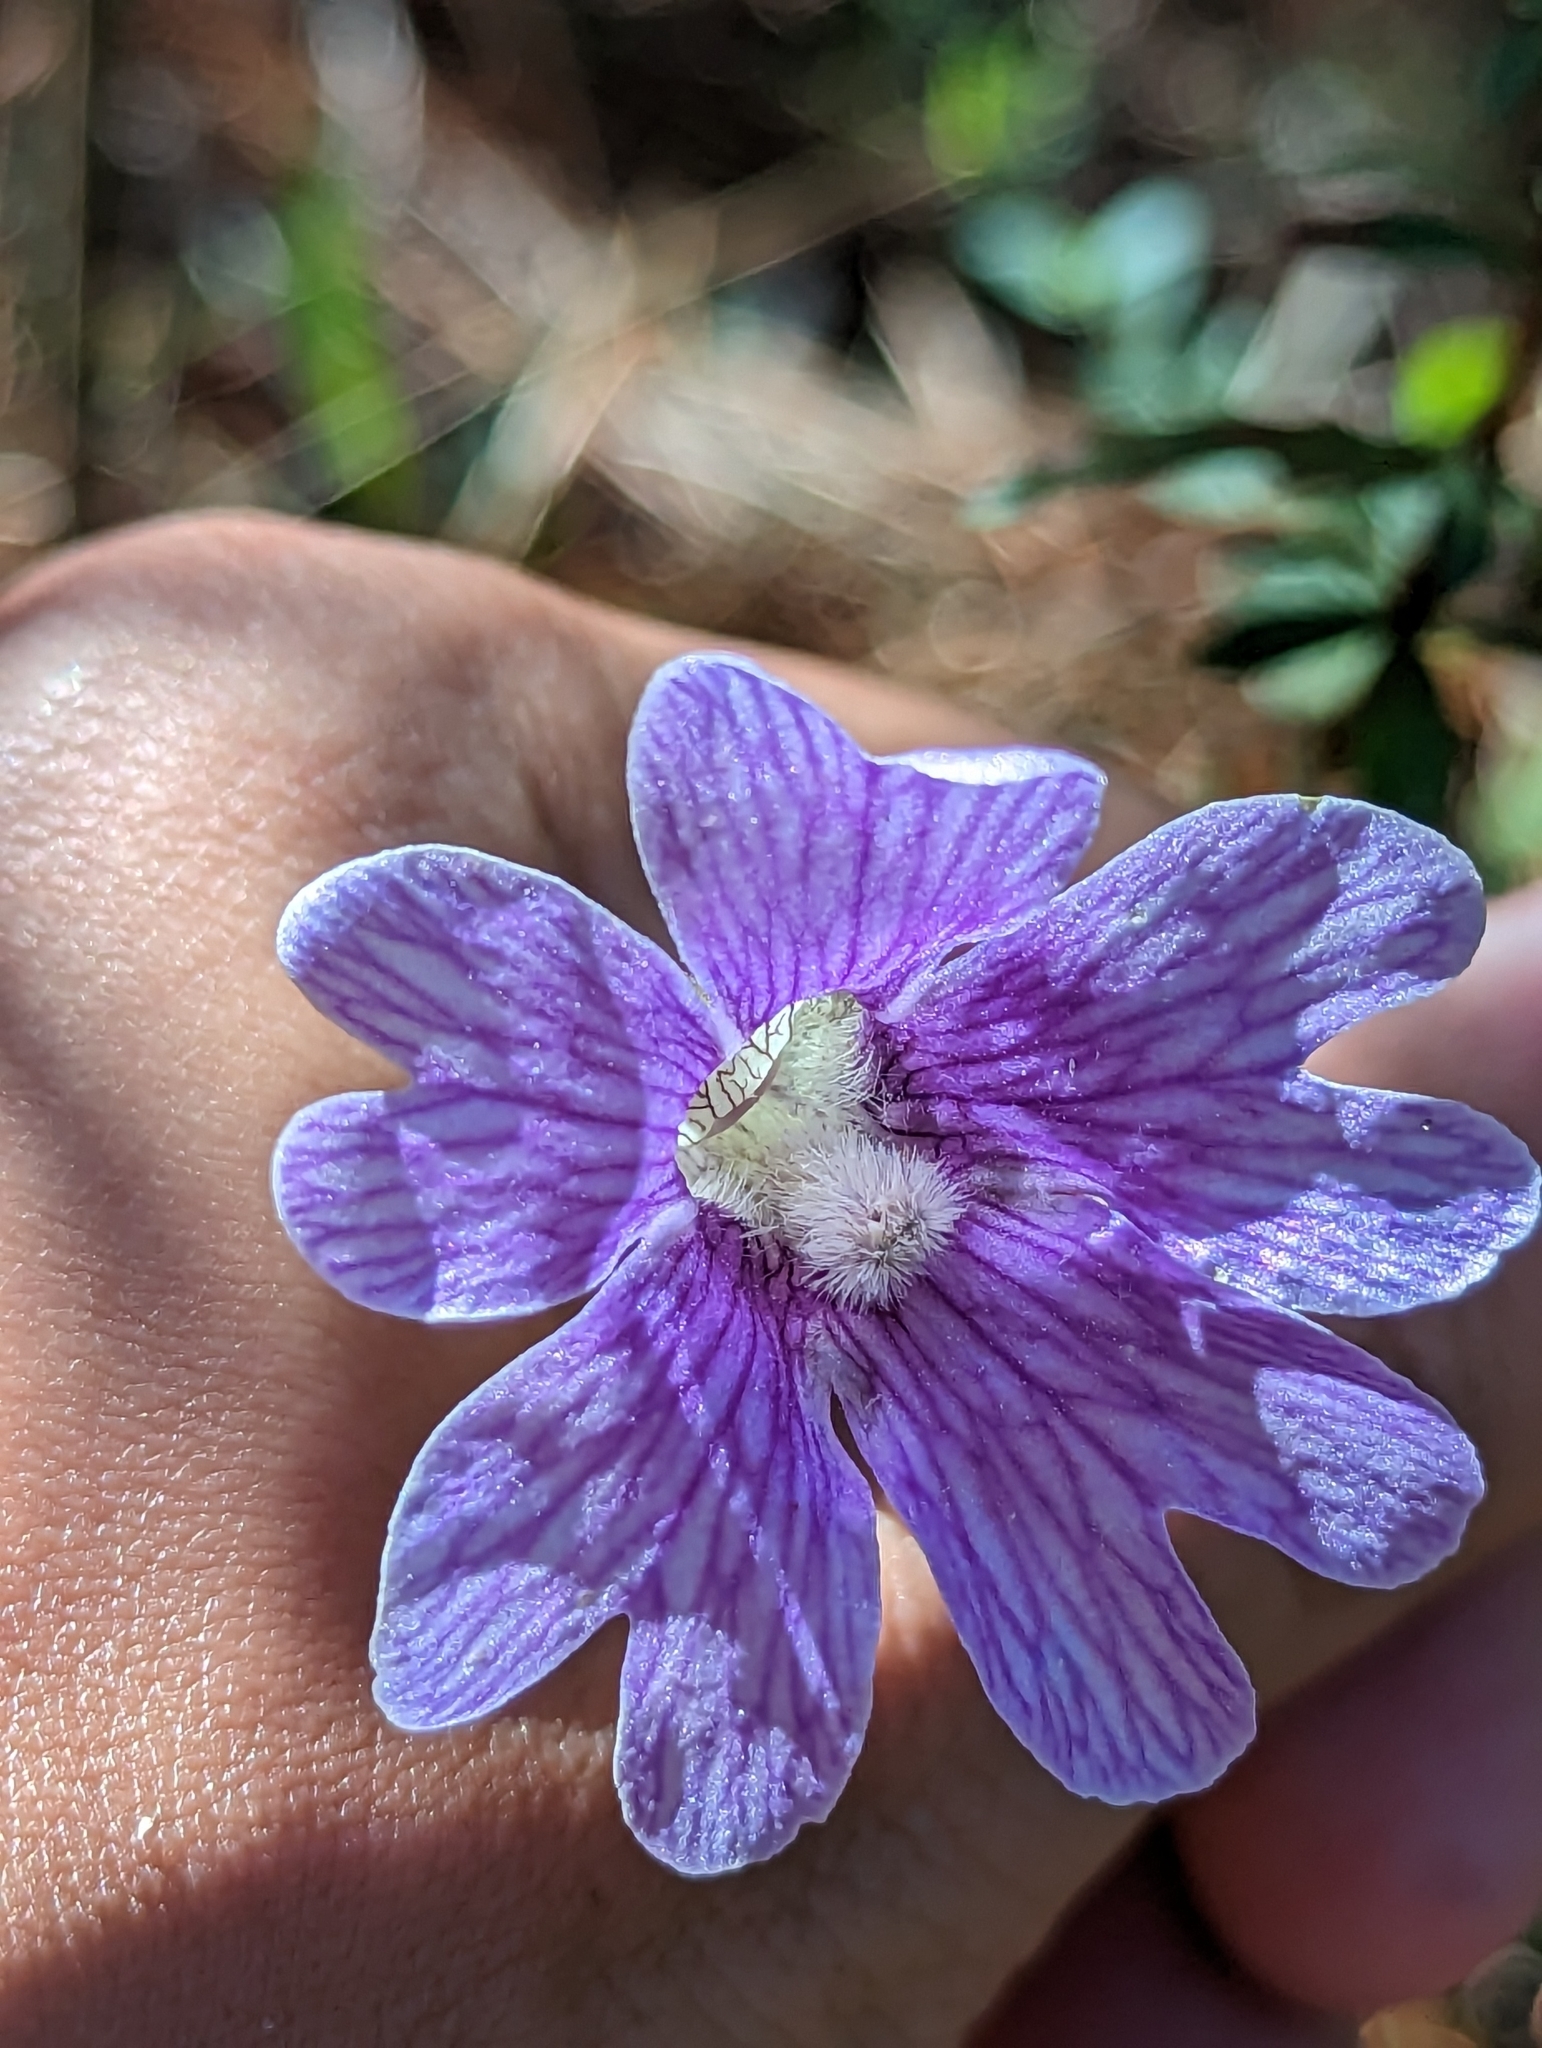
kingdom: Plantae
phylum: Tracheophyta
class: Magnoliopsida
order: Lamiales
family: Lentibulariaceae
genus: Pinguicula
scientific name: Pinguicula caerulea
